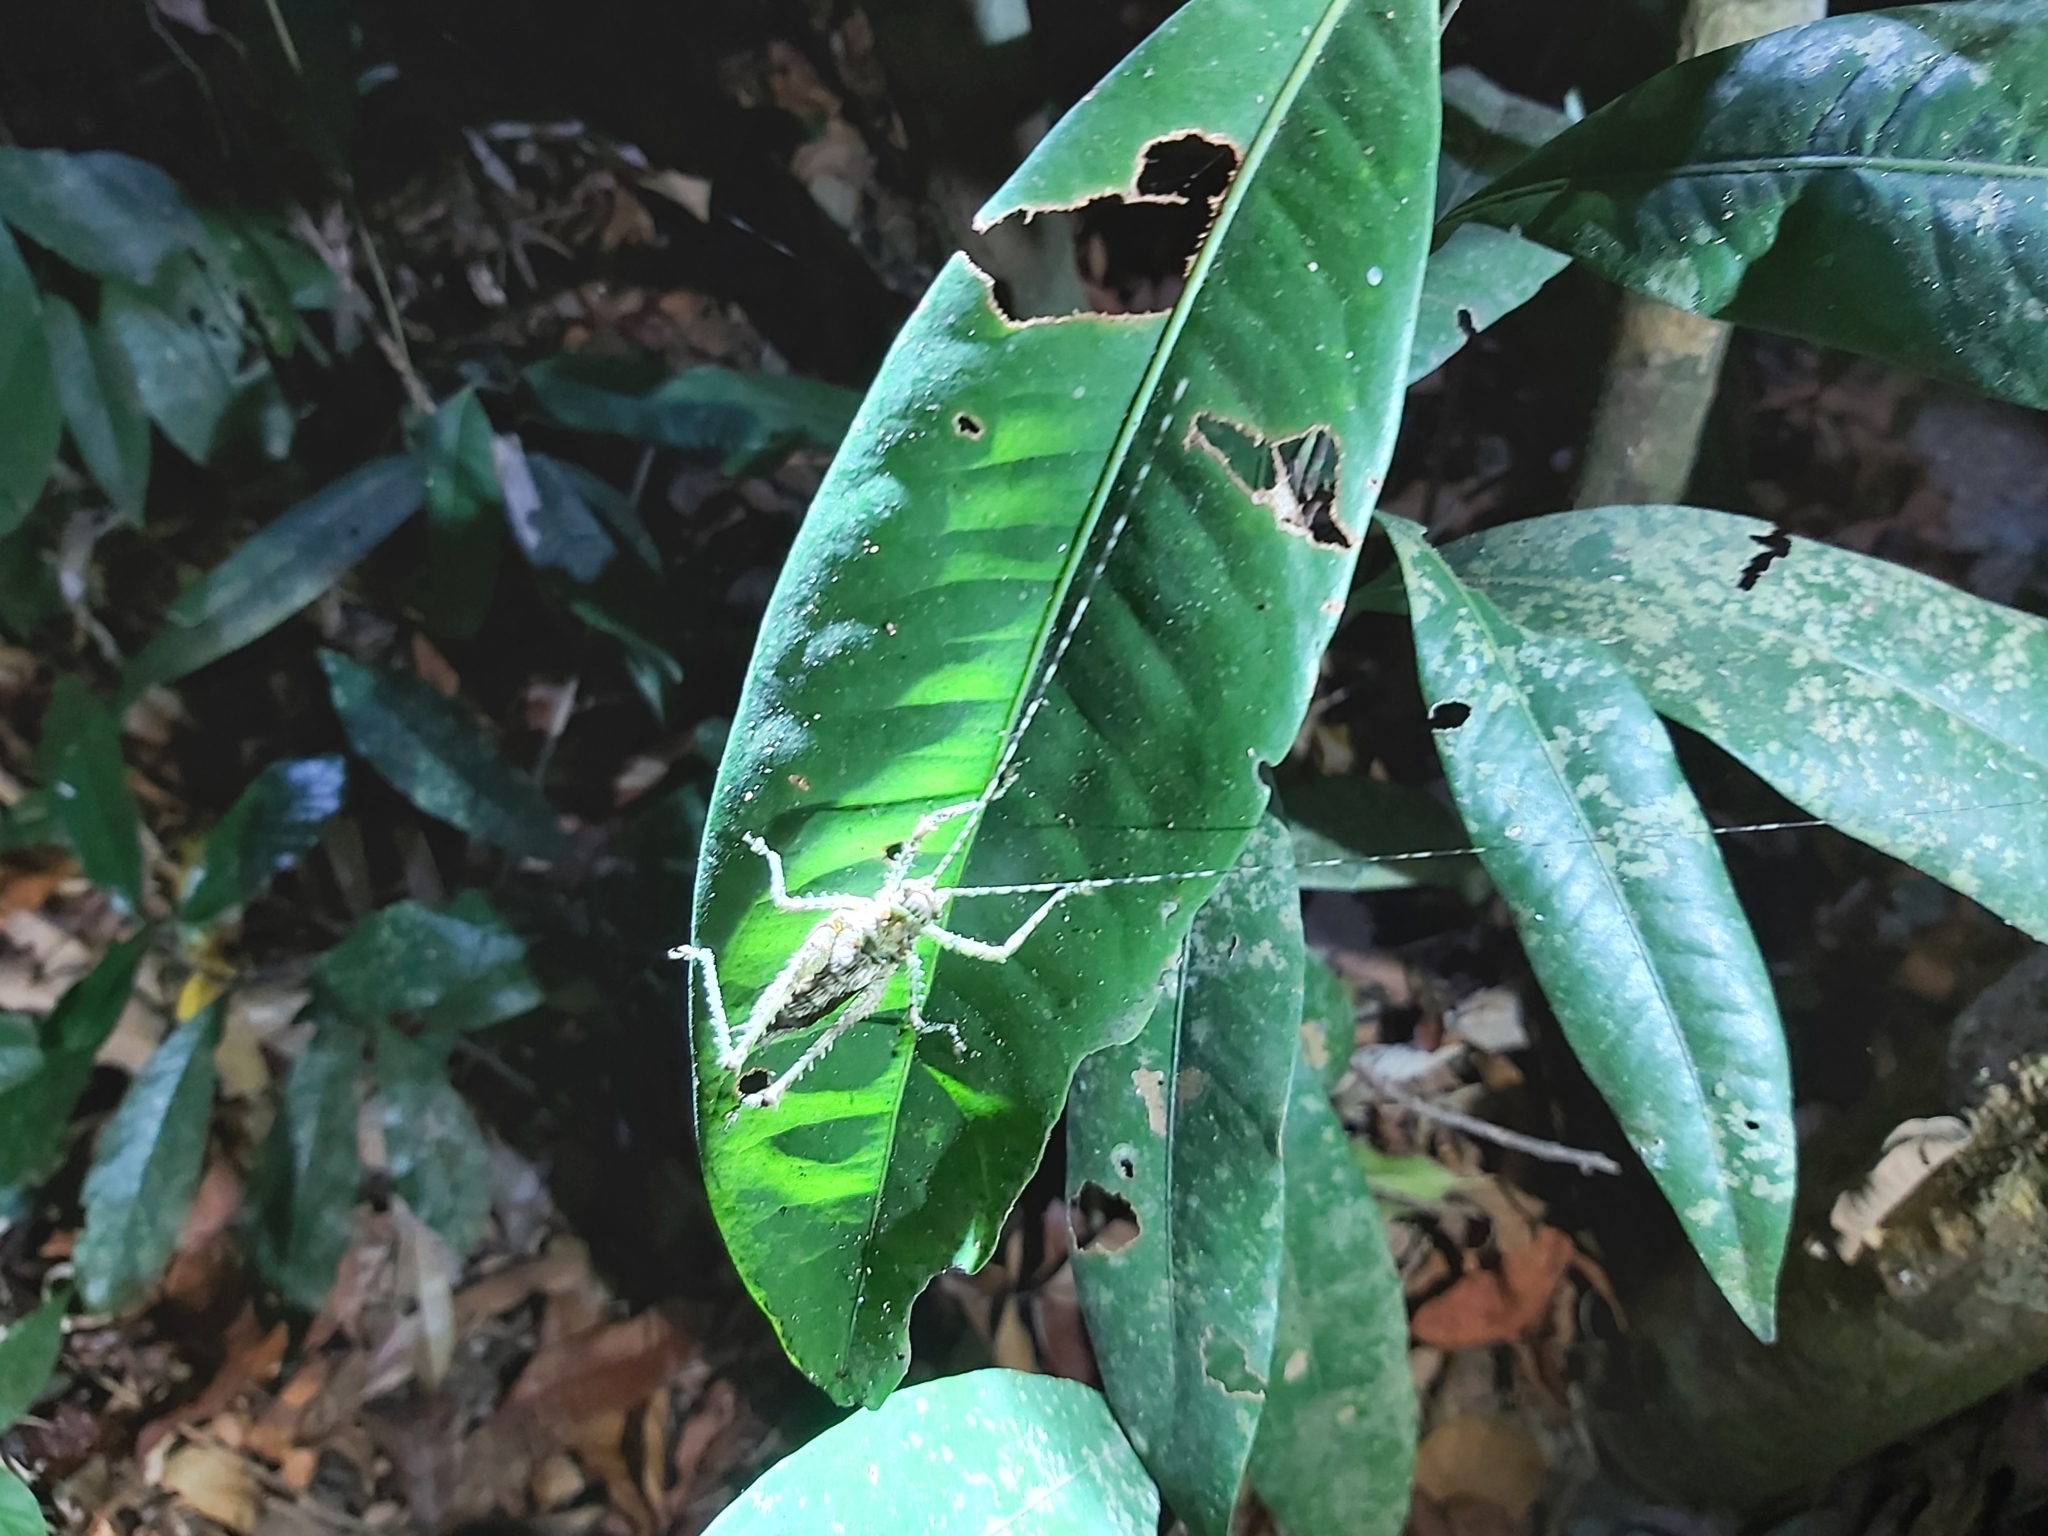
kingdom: Animalia
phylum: Arthropoda
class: Insecta
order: Orthoptera
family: Tettigoniidae
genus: Phricta
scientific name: Phricta spinosa
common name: Giant spiny forest katydid
